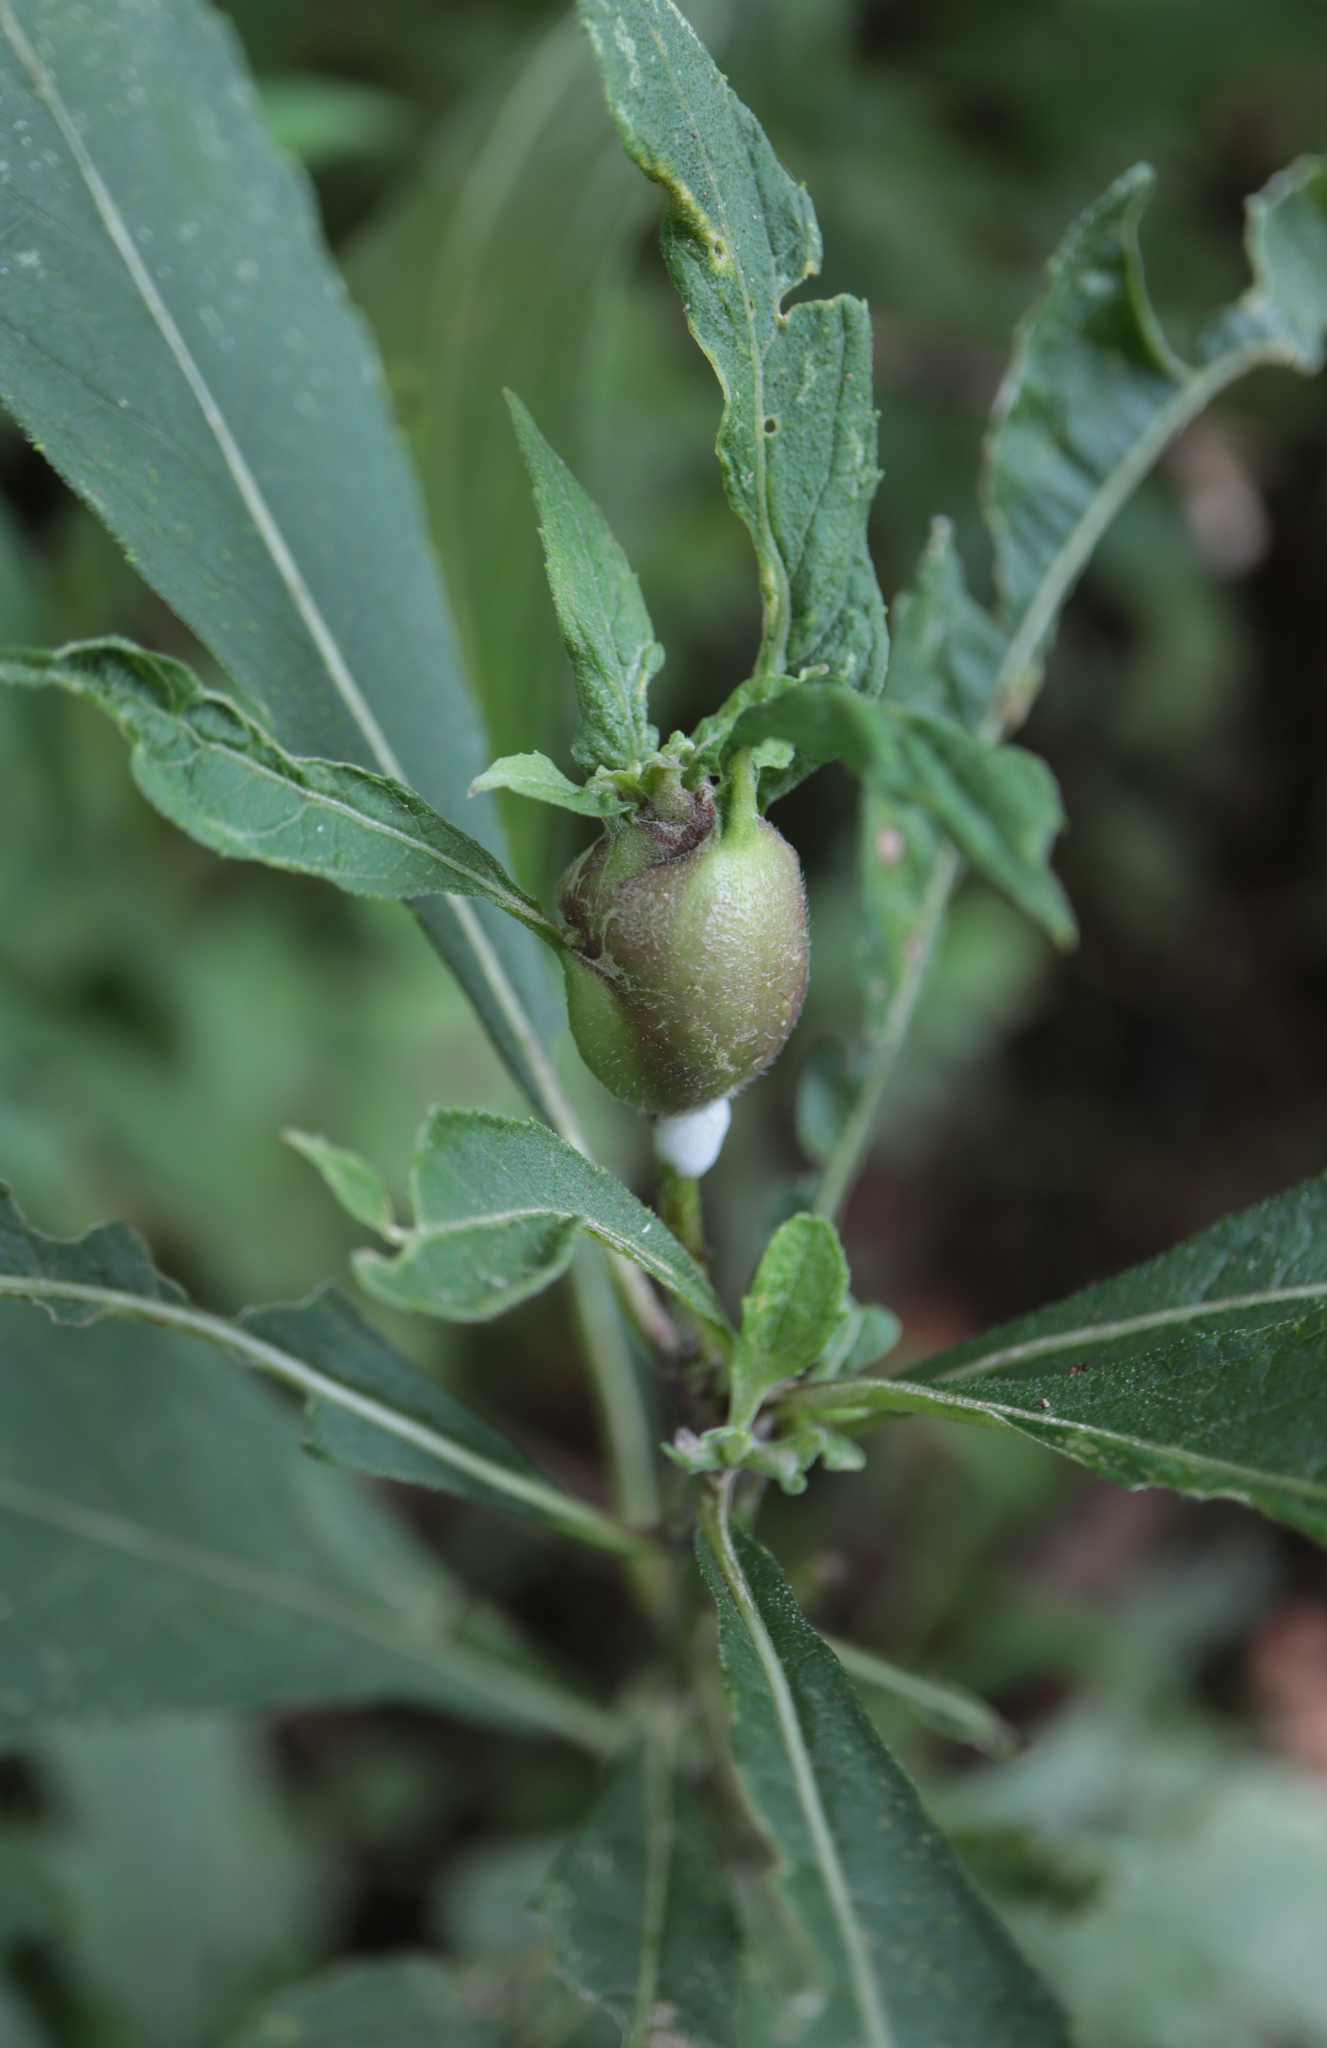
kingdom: Animalia
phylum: Arthropoda
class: Insecta
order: Diptera
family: Cecidomyiidae
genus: Neolasioptera
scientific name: Neolasioptera vernoniae
